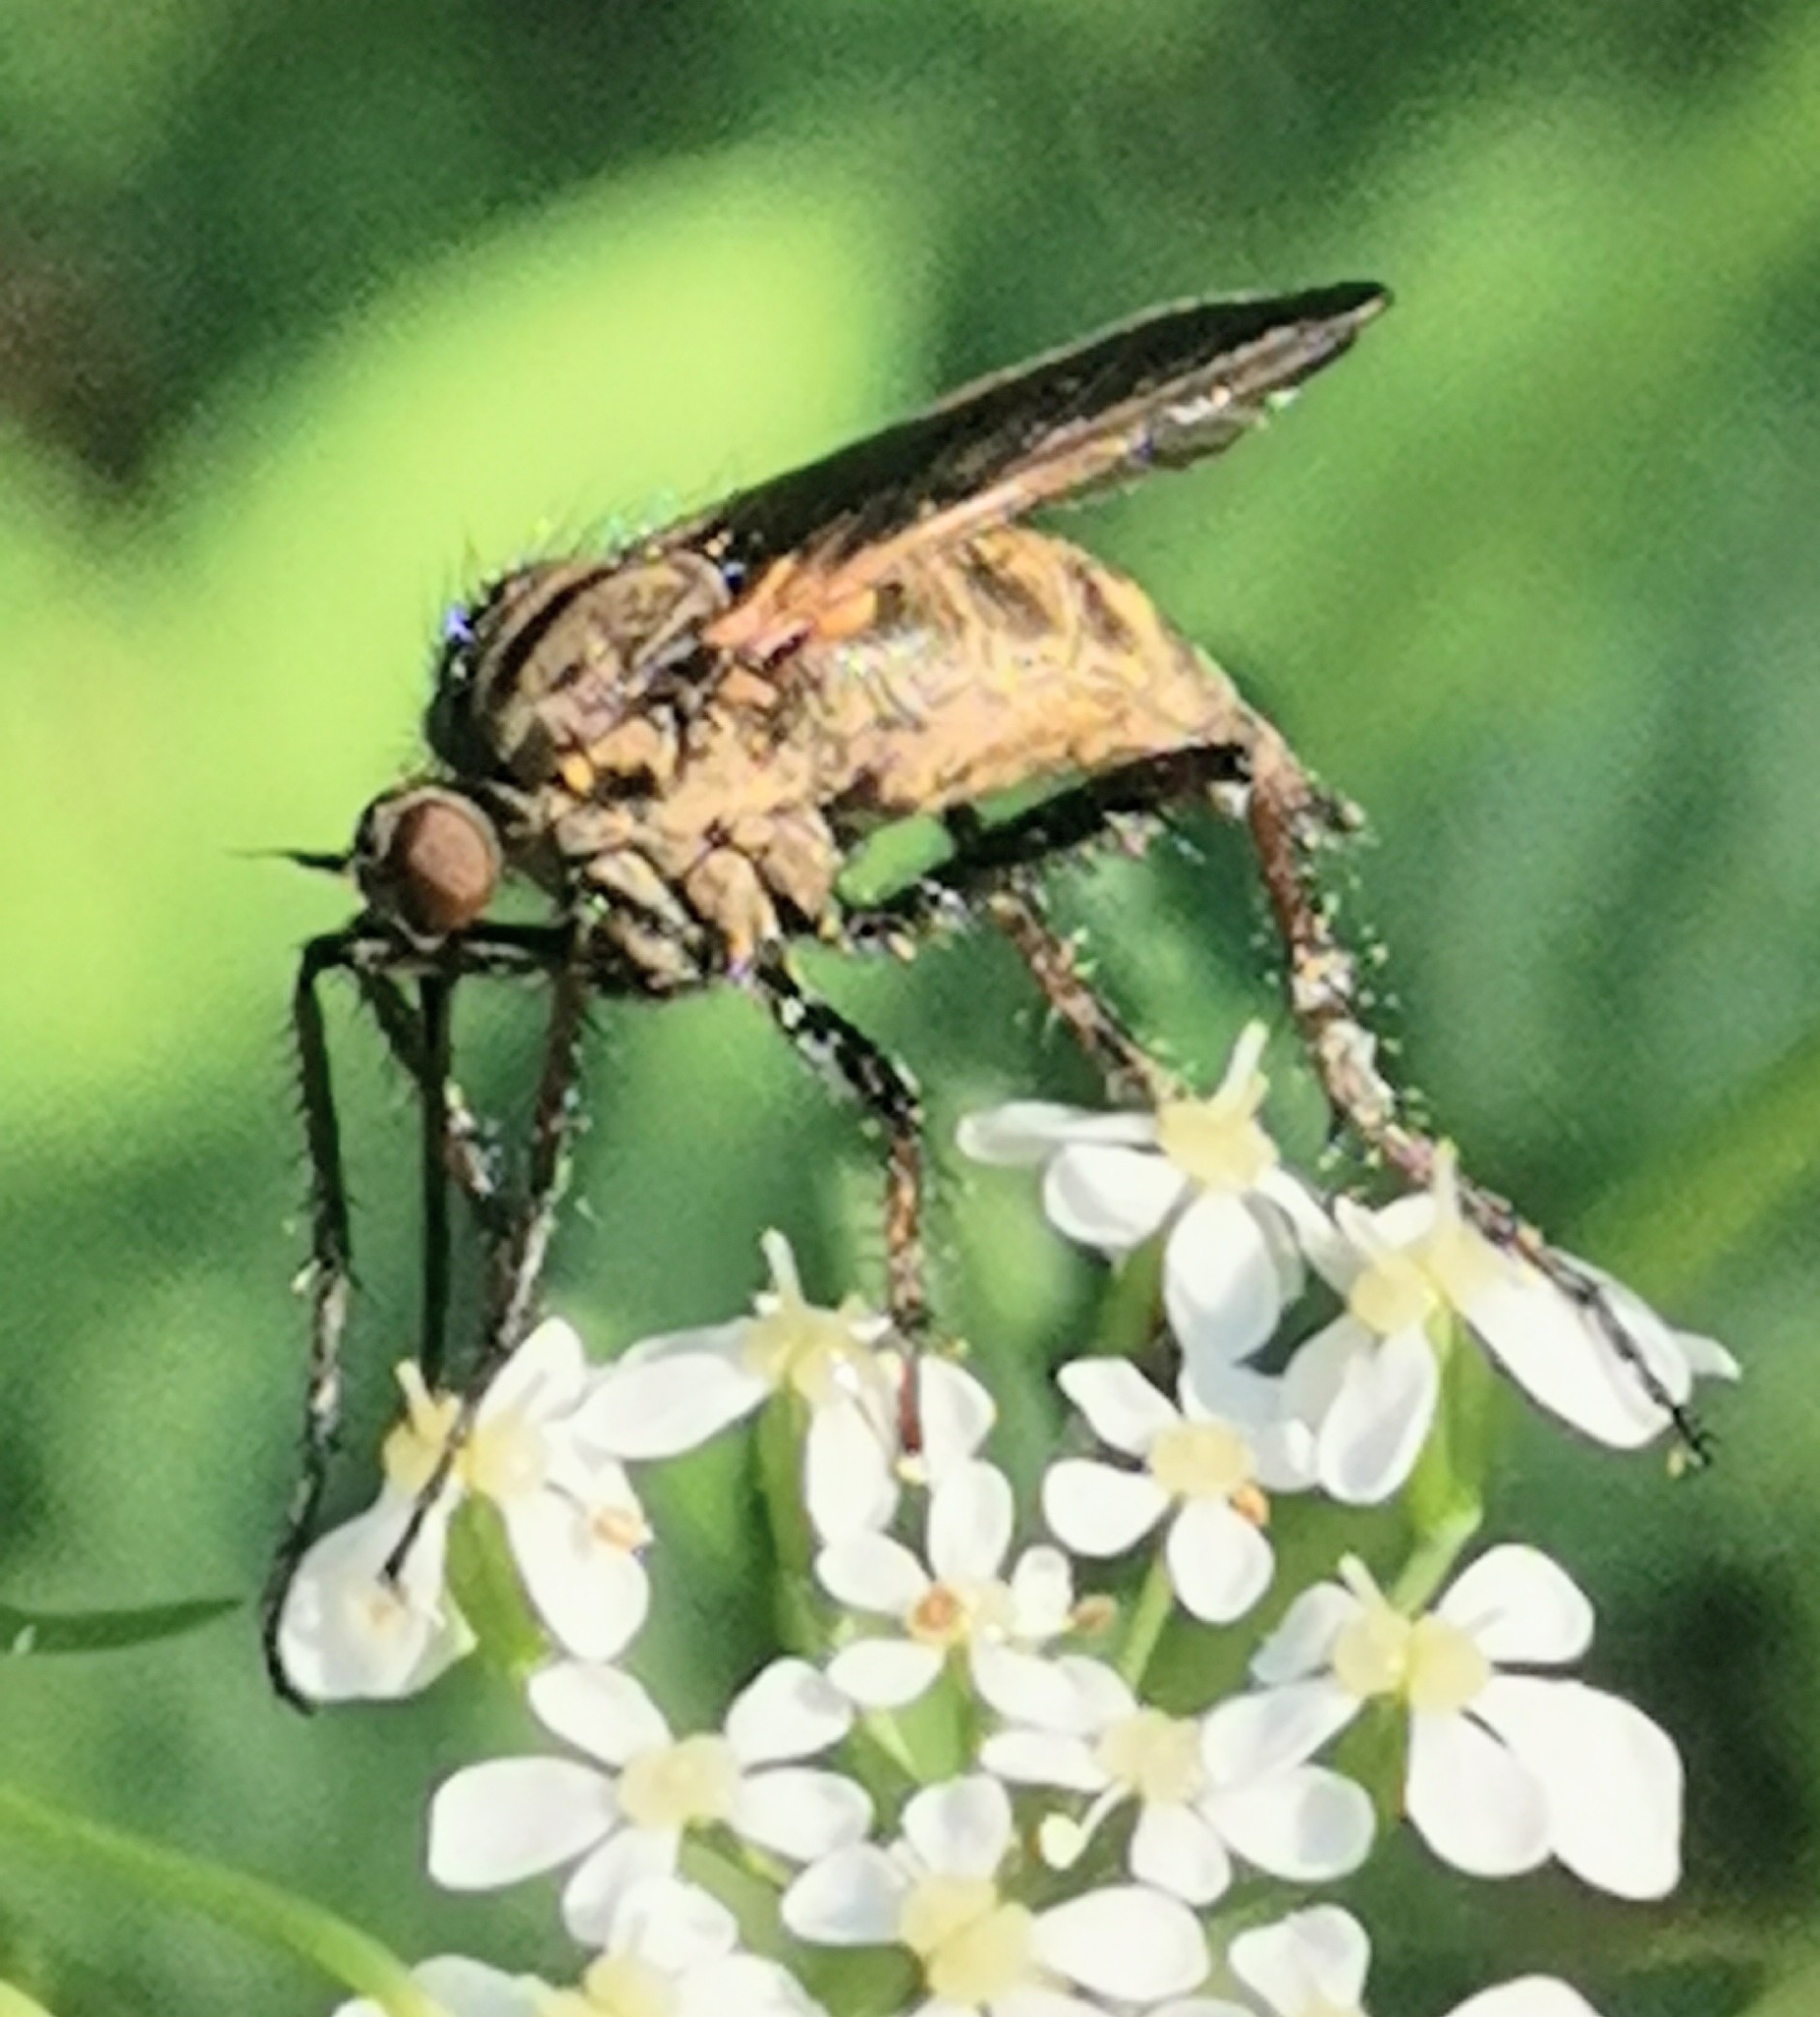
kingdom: Animalia
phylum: Arthropoda
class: Insecta
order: Diptera
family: Empididae
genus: Empis
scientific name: Empis tessellata
